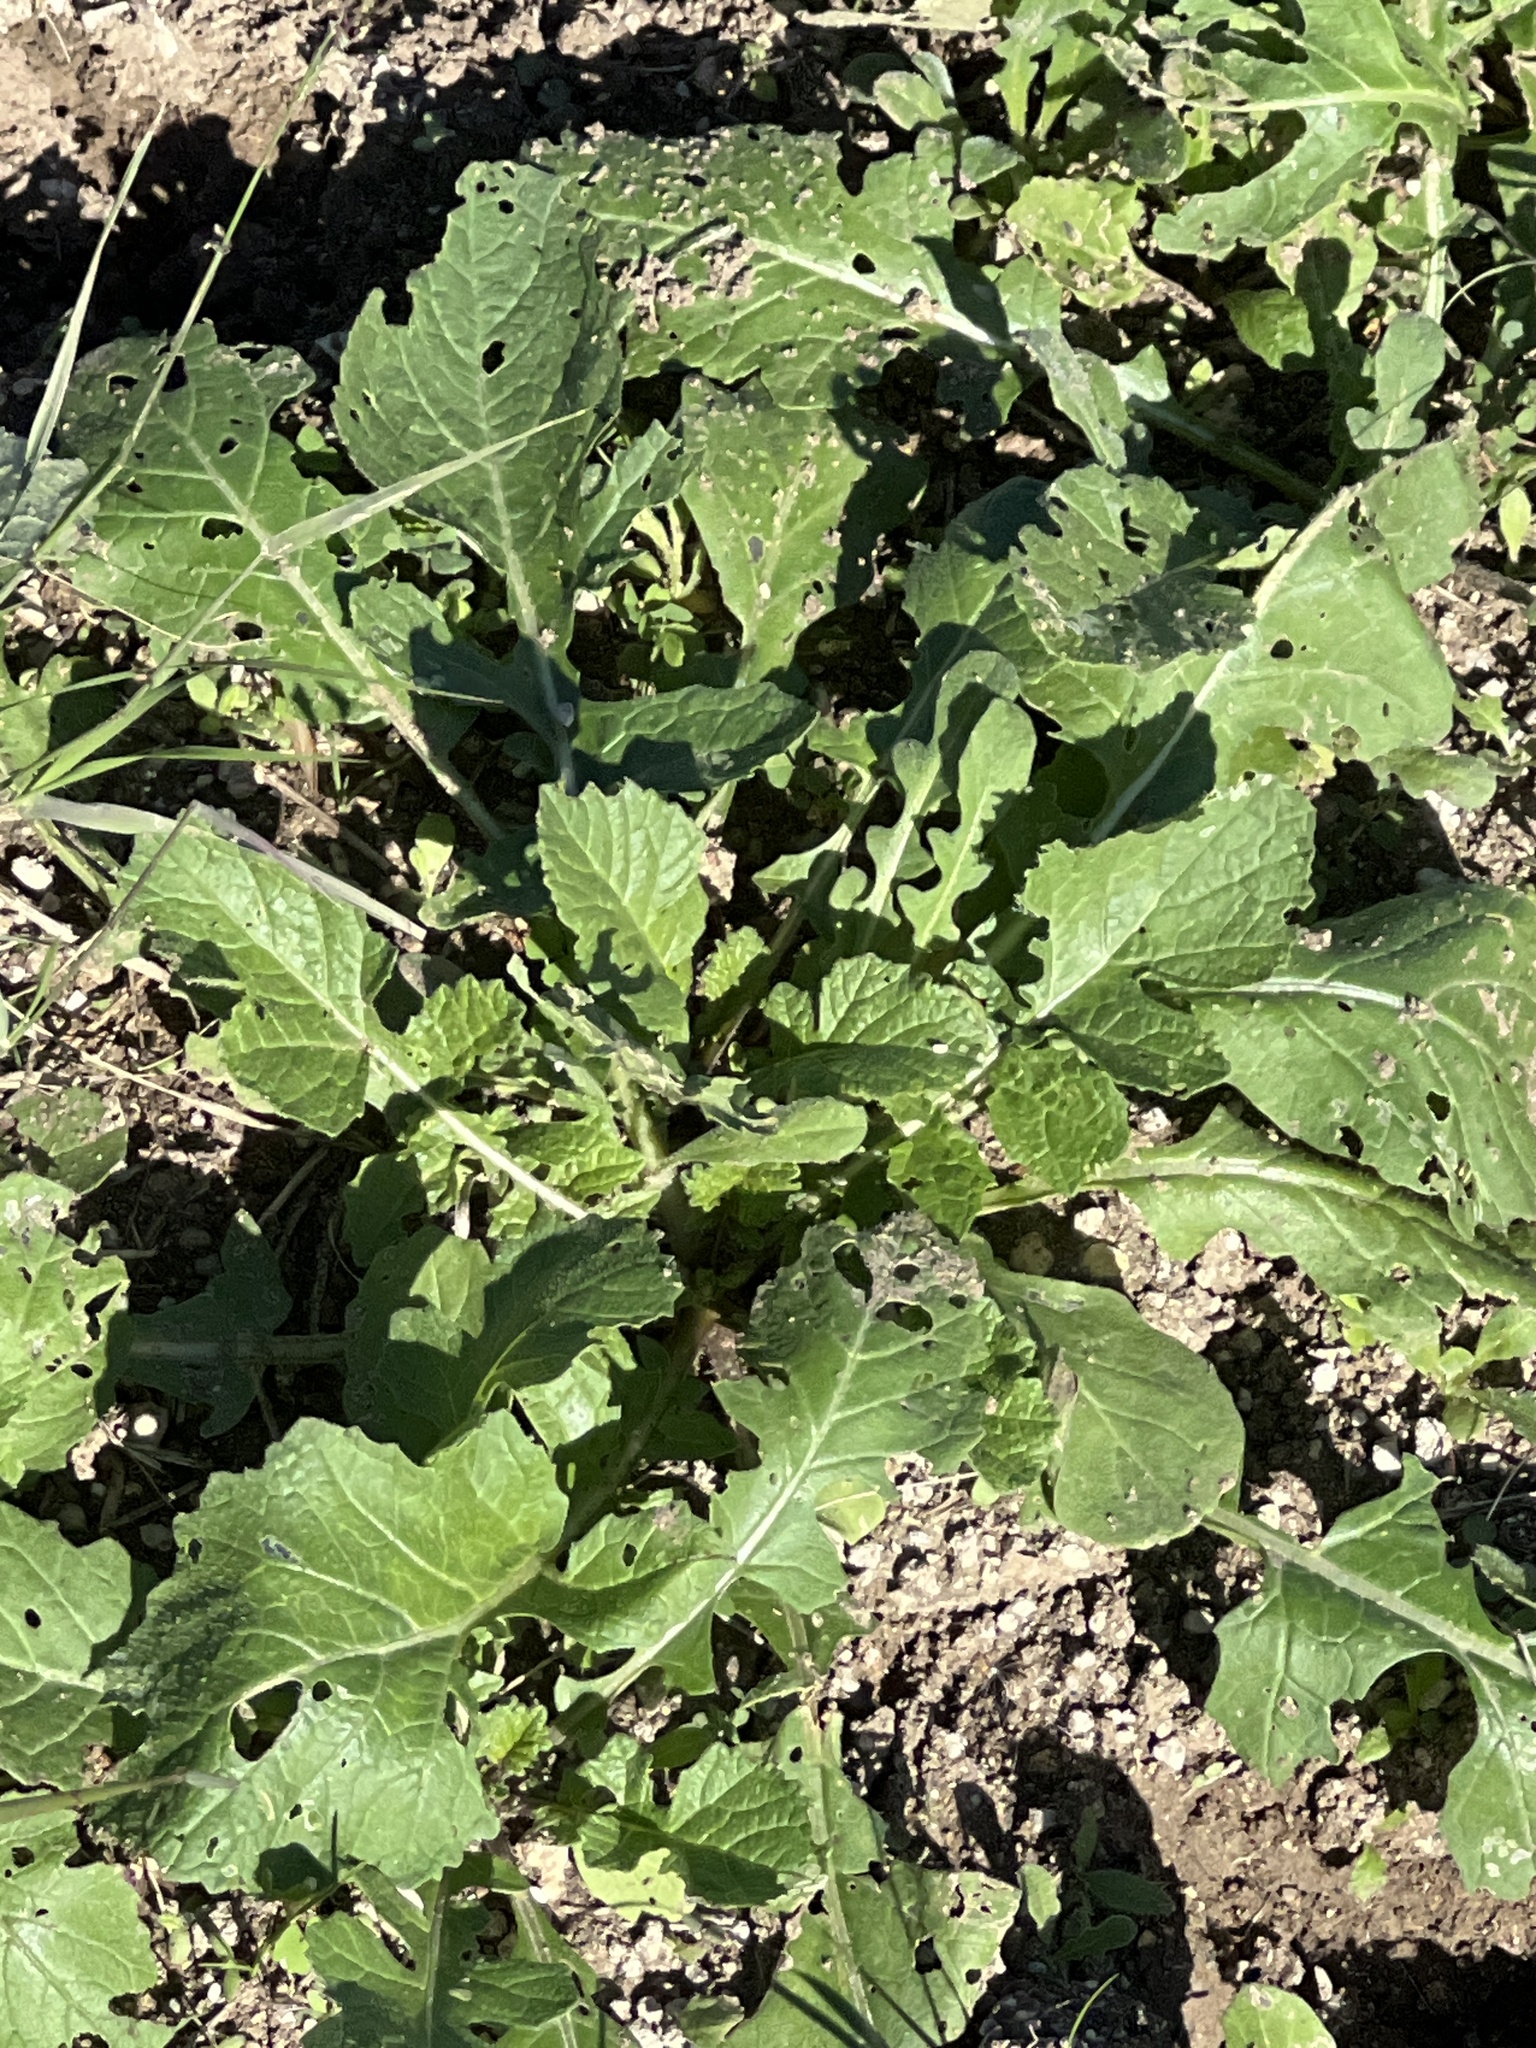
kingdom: Plantae
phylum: Tracheophyta
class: Magnoliopsida
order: Brassicales
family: Brassicaceae
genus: Rapistrum
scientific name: Rapistrum rugosum
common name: Annual bastardcabbage
